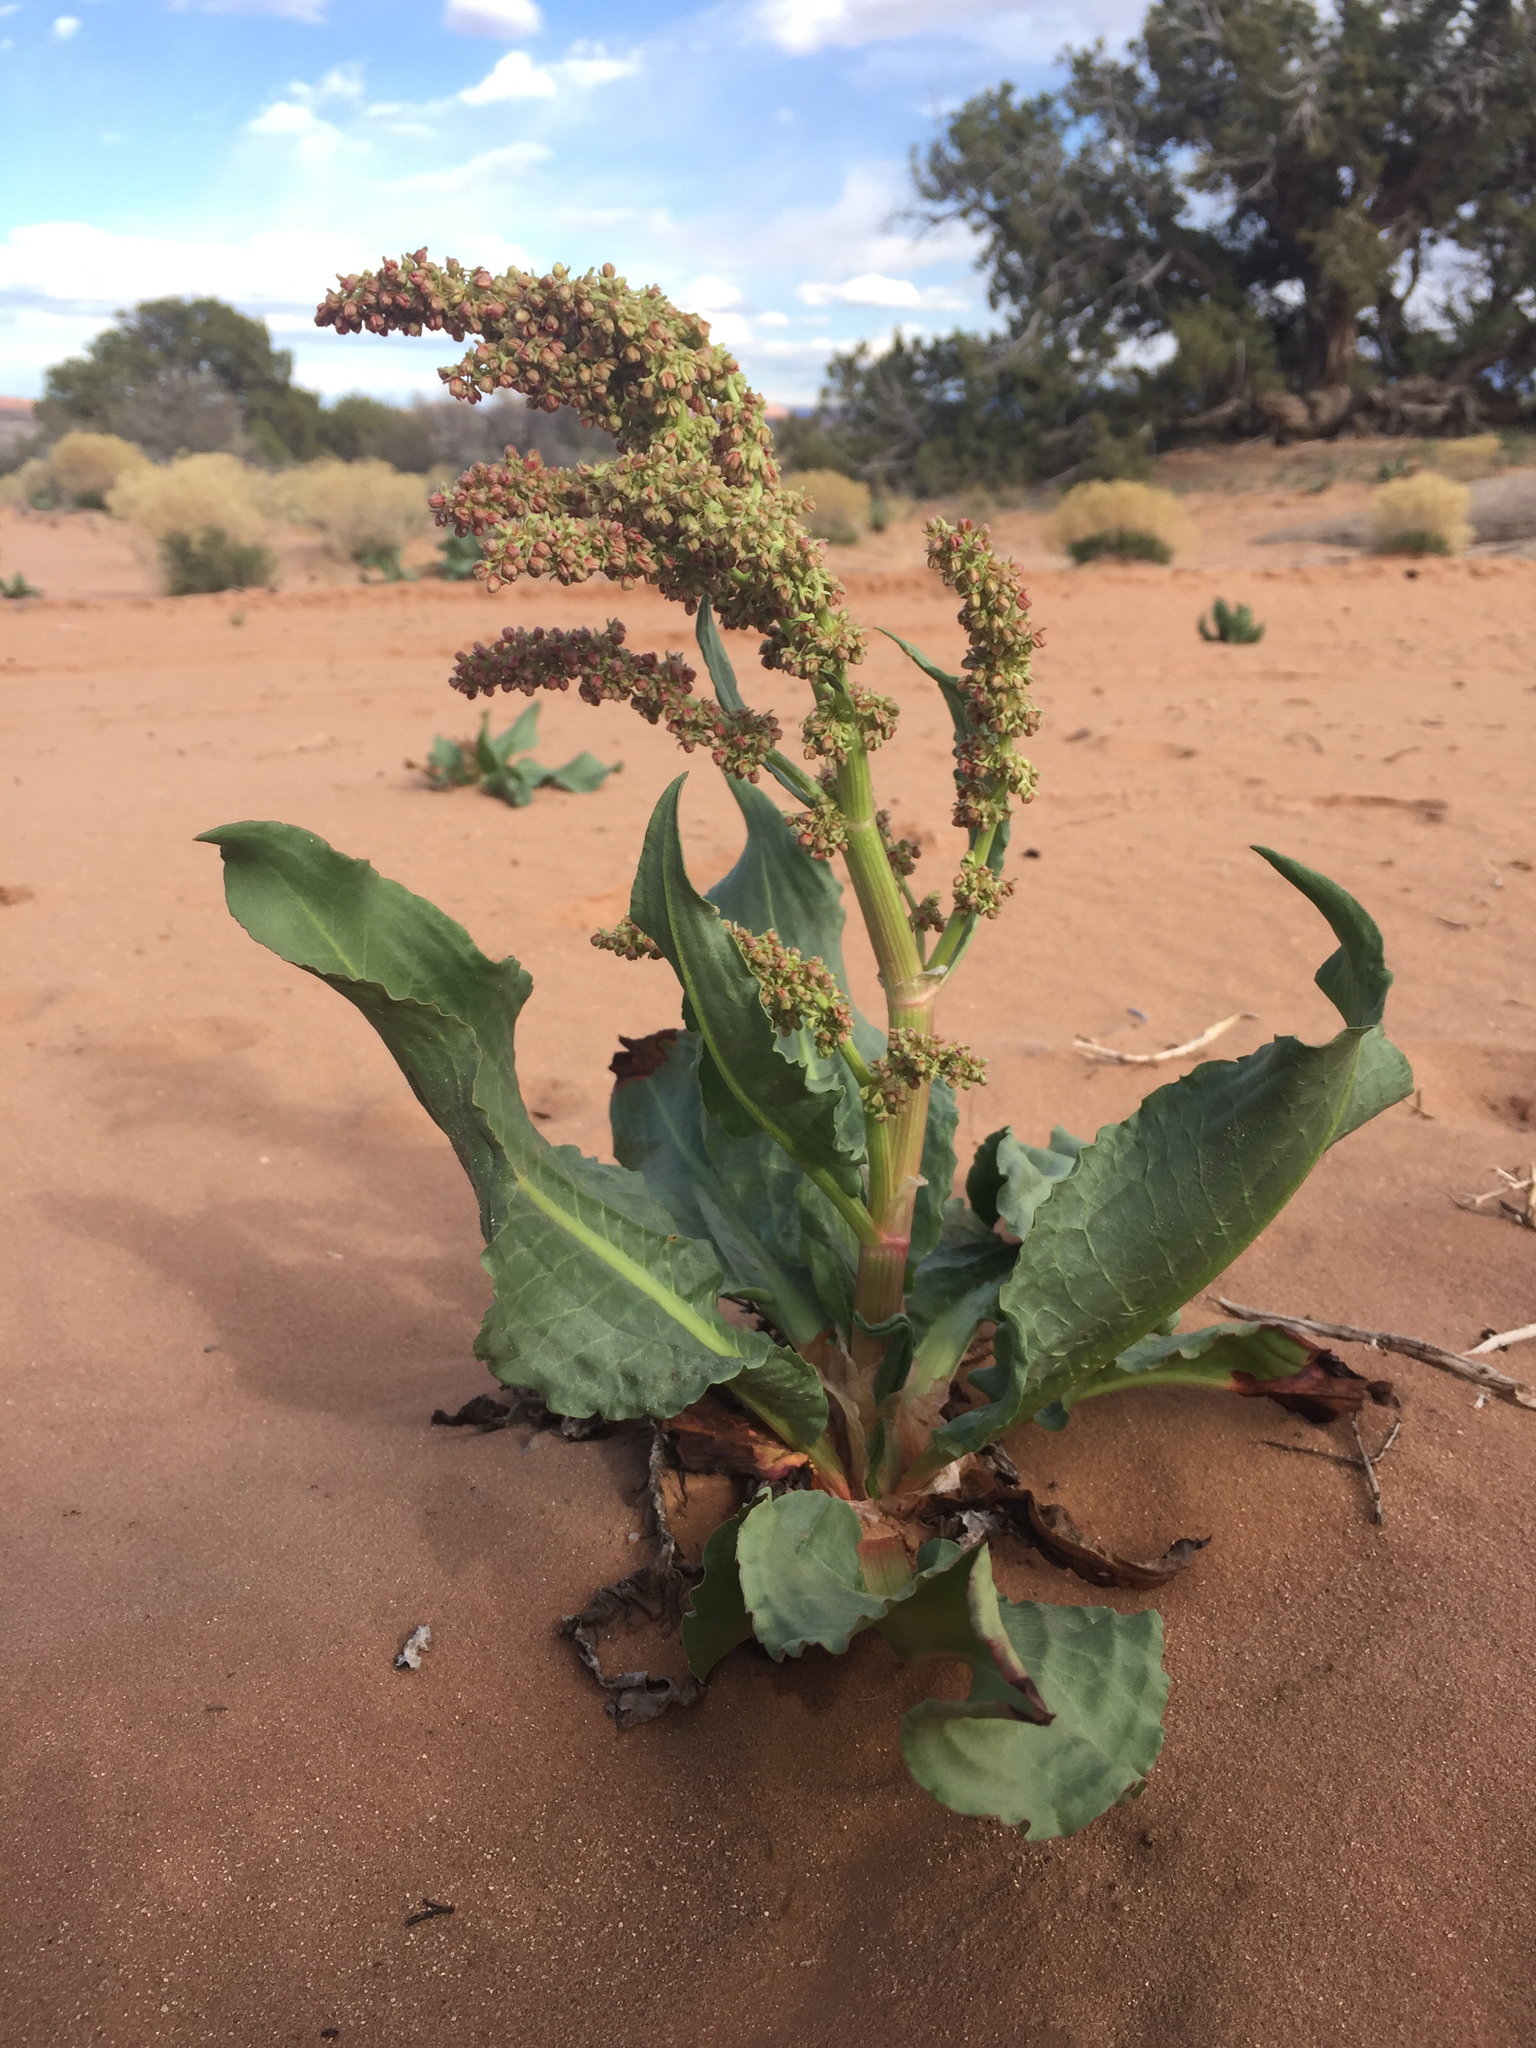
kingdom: Plantae
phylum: Tracheophyta
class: Magnoliopsida
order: Caryophyllales
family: Polygonaceae
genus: Rumex
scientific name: Rumex hymenosepalus
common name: Ganagra
